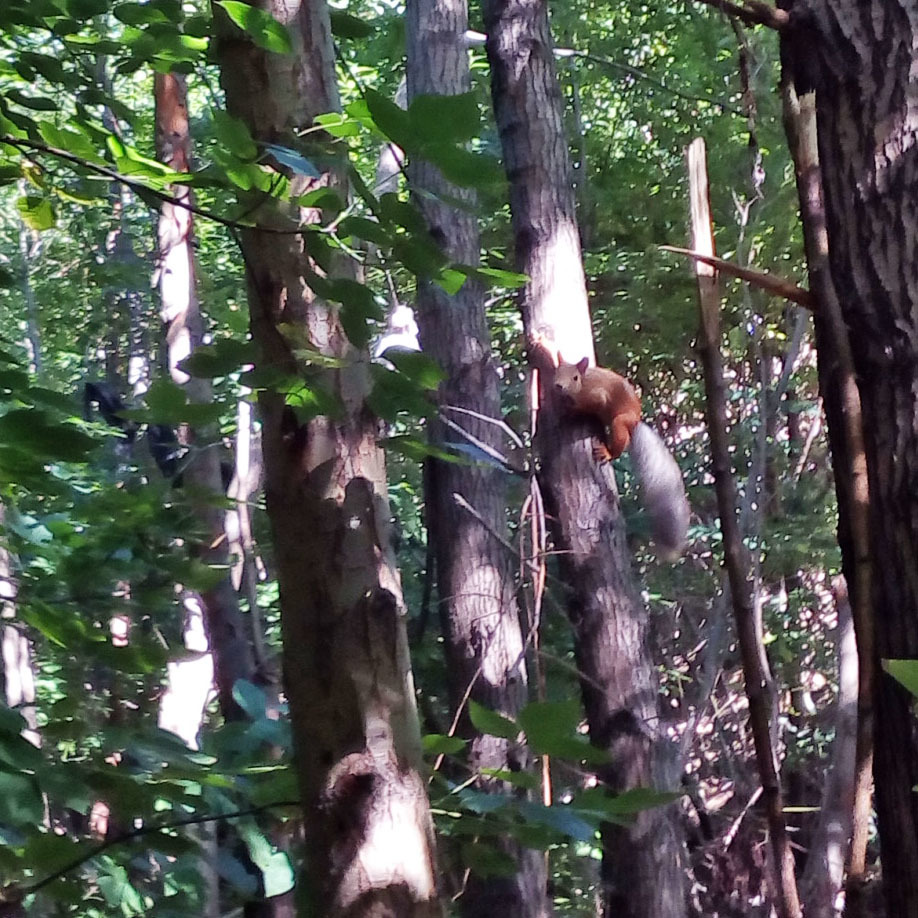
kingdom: Animalia
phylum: Chordata
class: Mammalia
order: Rodentia
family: Sciuridae
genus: Sciurus
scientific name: Sciurus vulgaris
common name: Eurasian red squirrel
